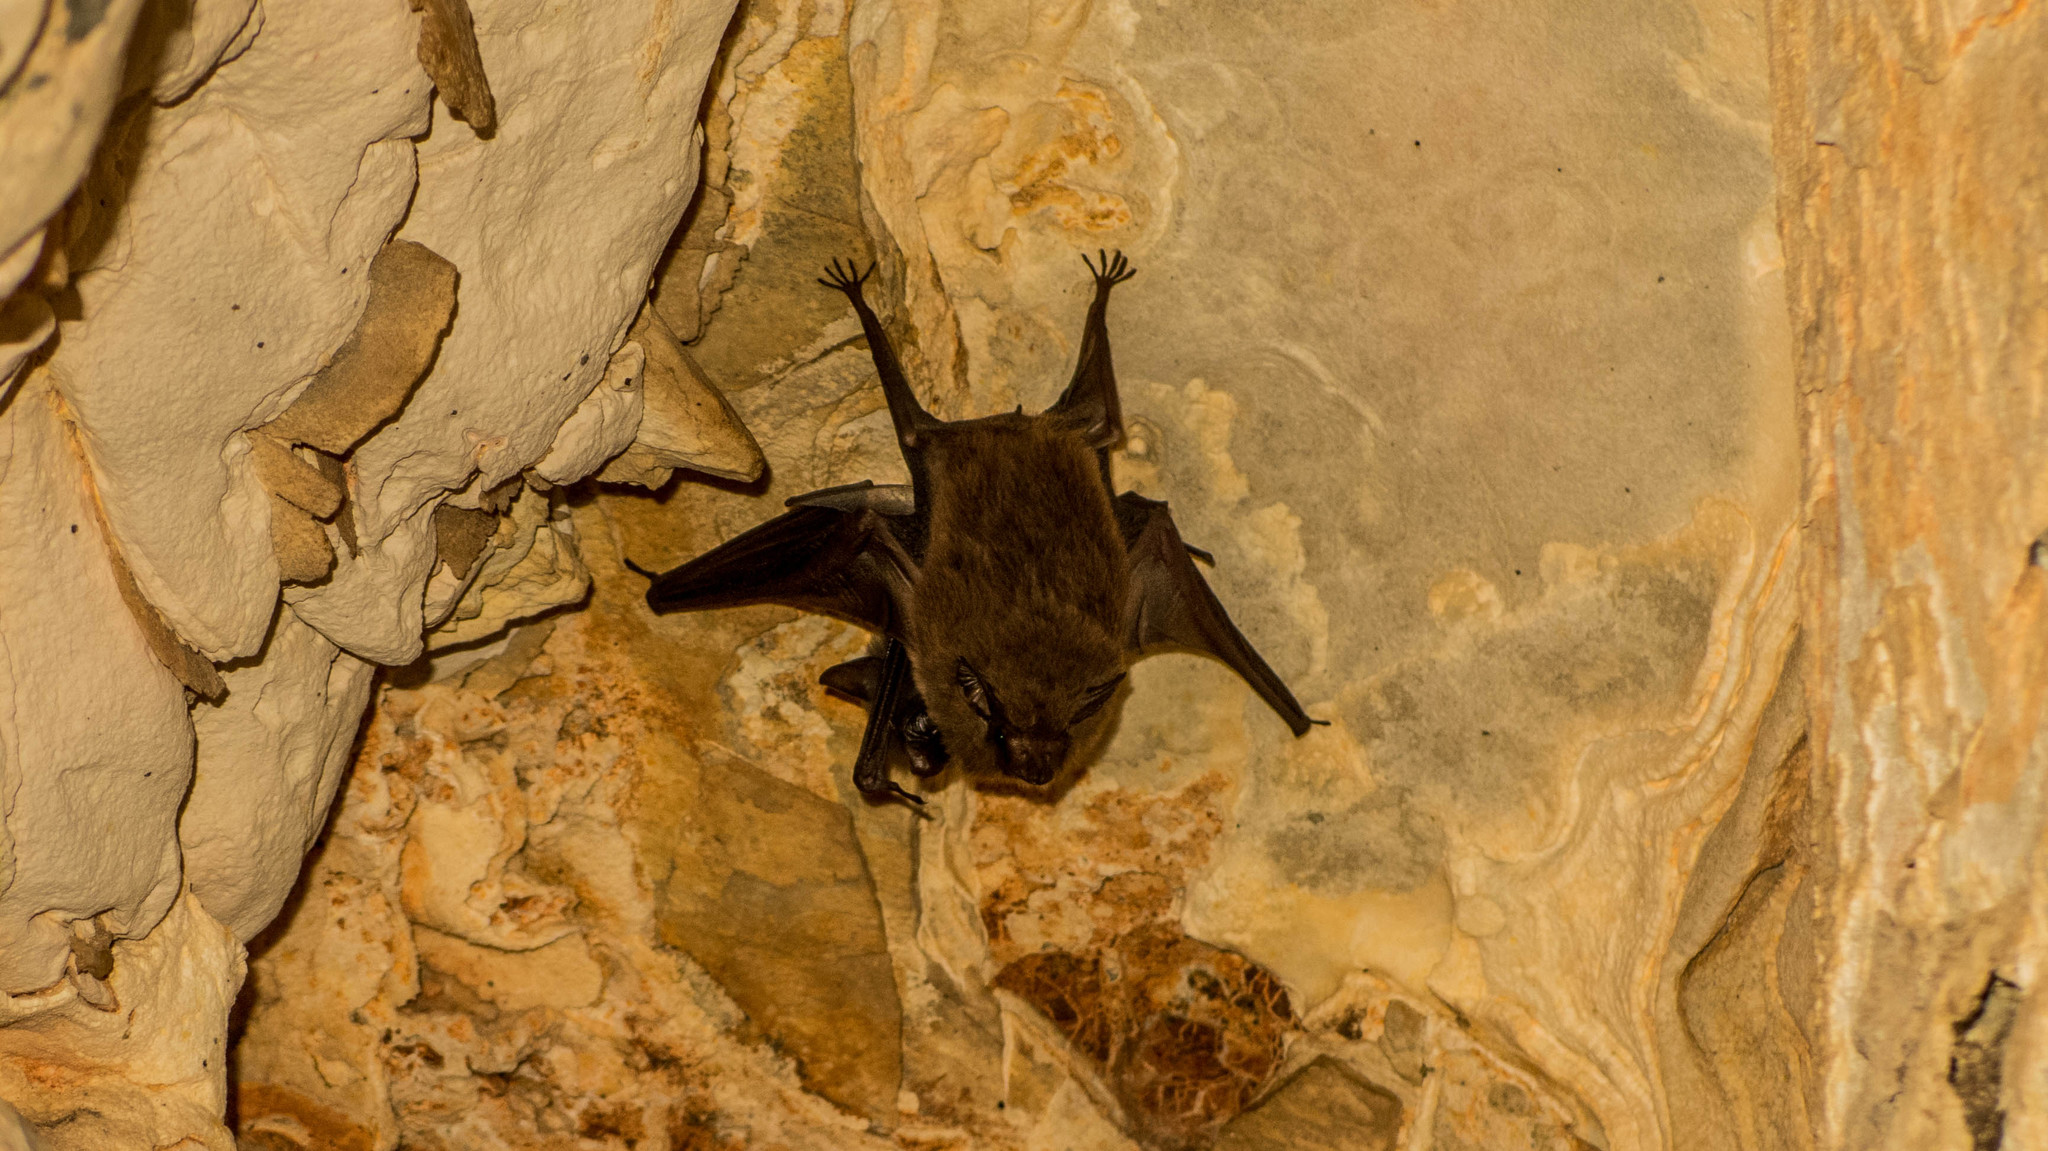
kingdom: Animalia
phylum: Chordata
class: Mammalia
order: Chiroptera
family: Emballonuridae
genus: Peropteryx
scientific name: Peropteryx macrotis
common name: Lesser dog-like bat
